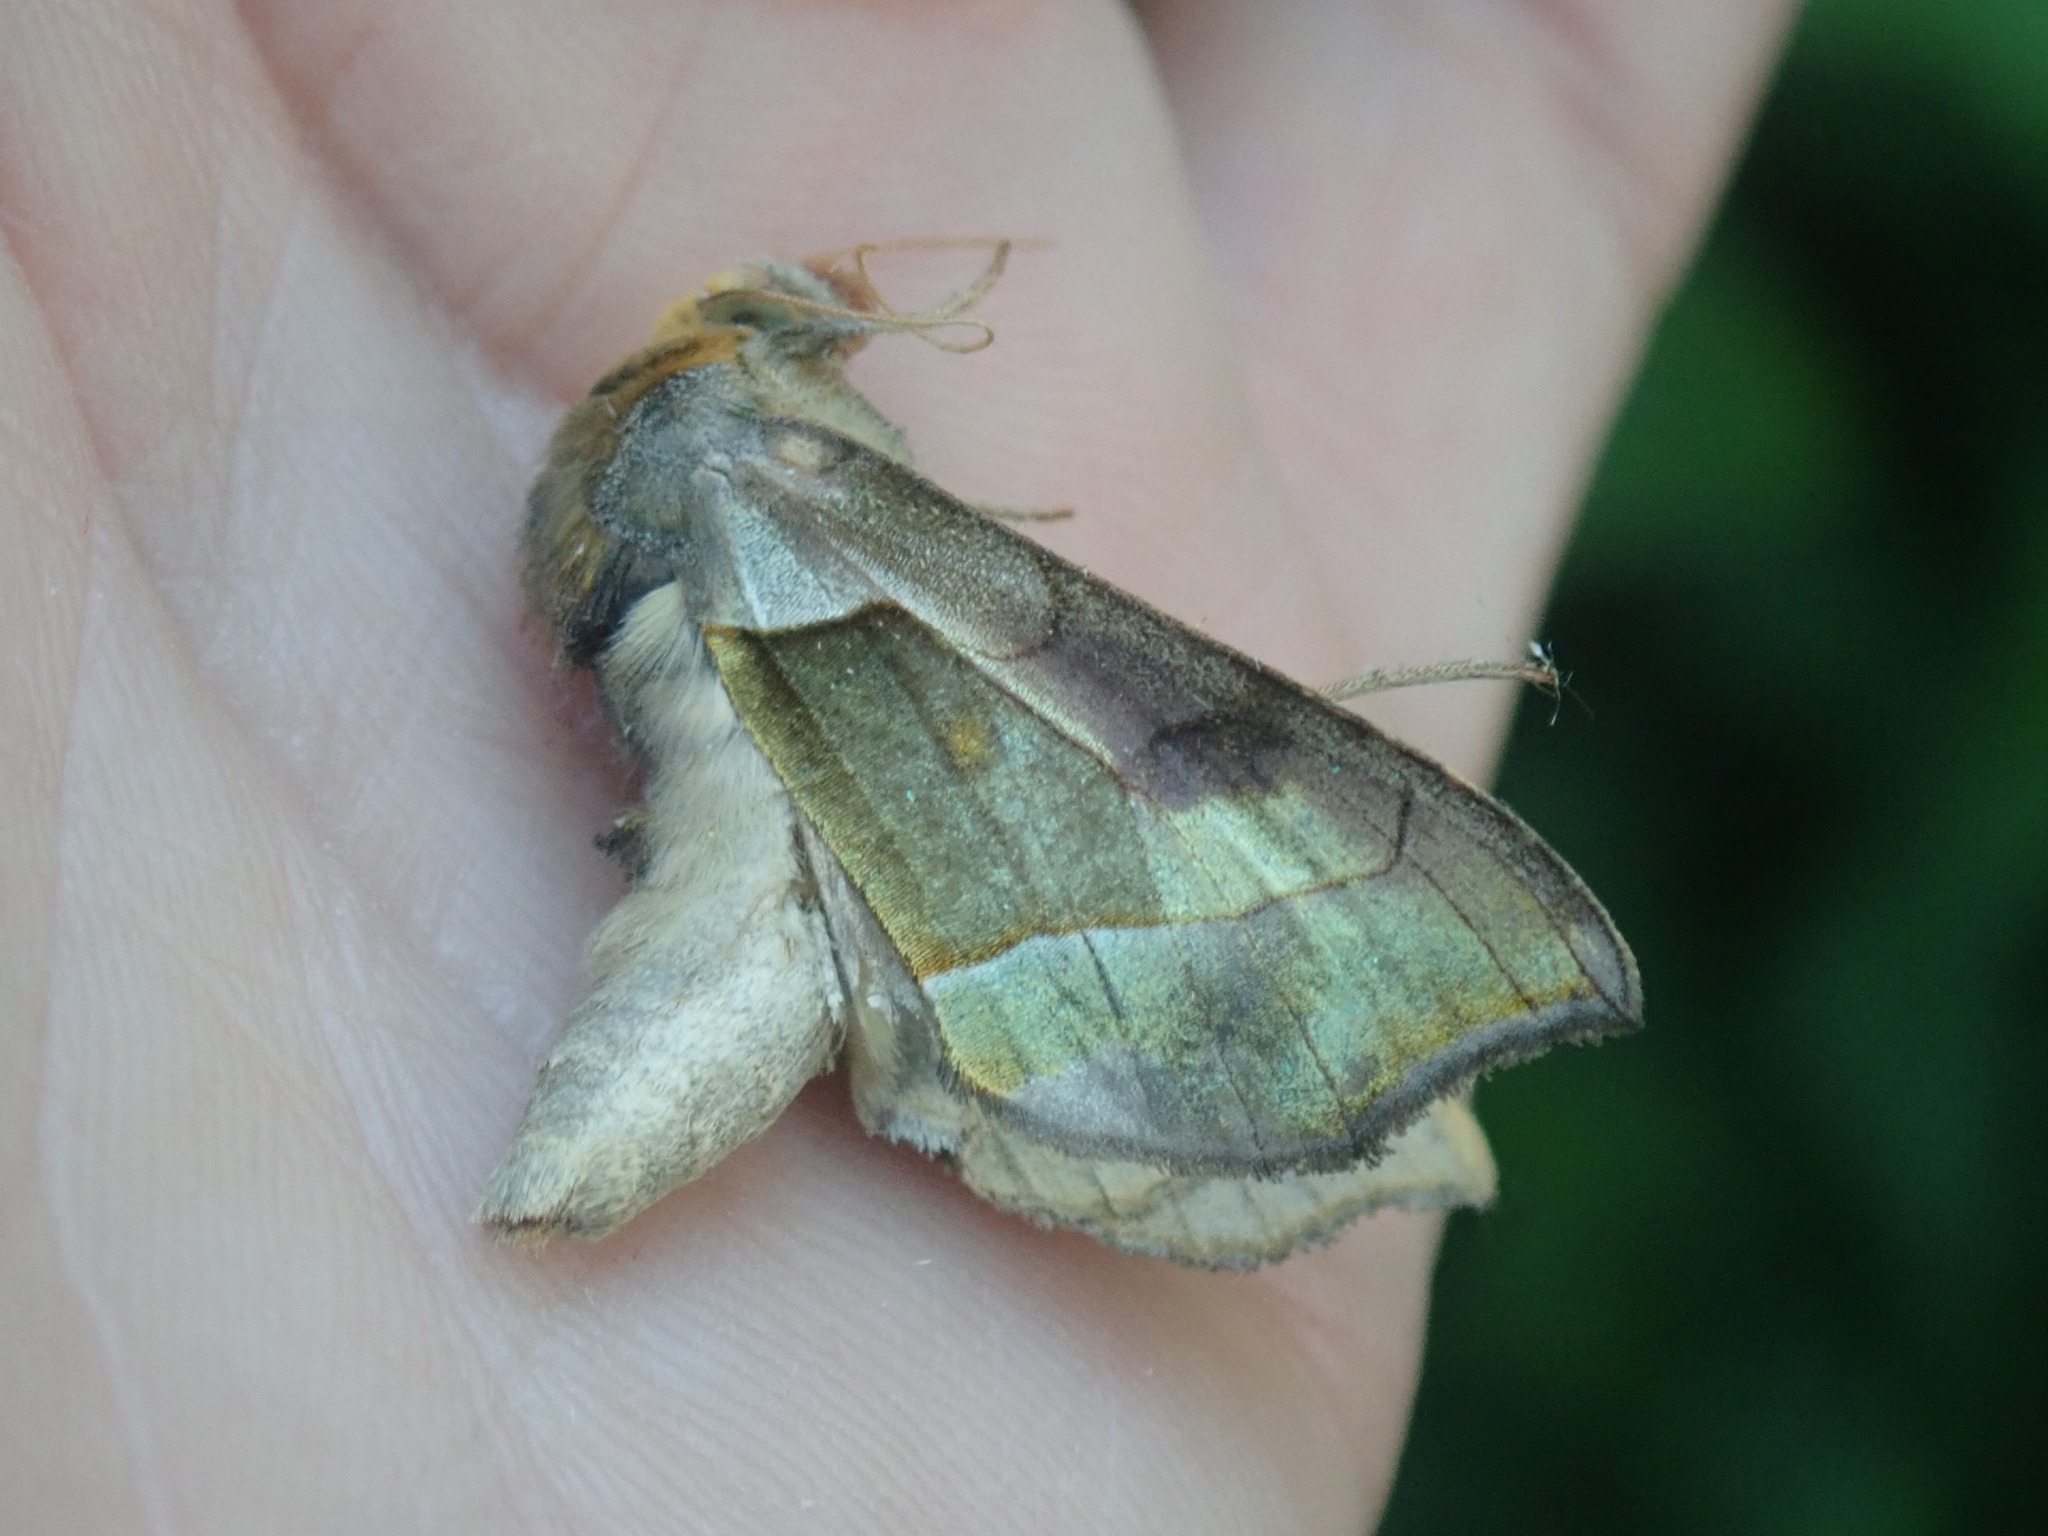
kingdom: Animalia
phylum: Arthropoda
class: Insecta
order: Lepidoptera
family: Noctuidae
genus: Diachrysia
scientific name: Diachrysia balluca
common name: Green-patched looper moth
